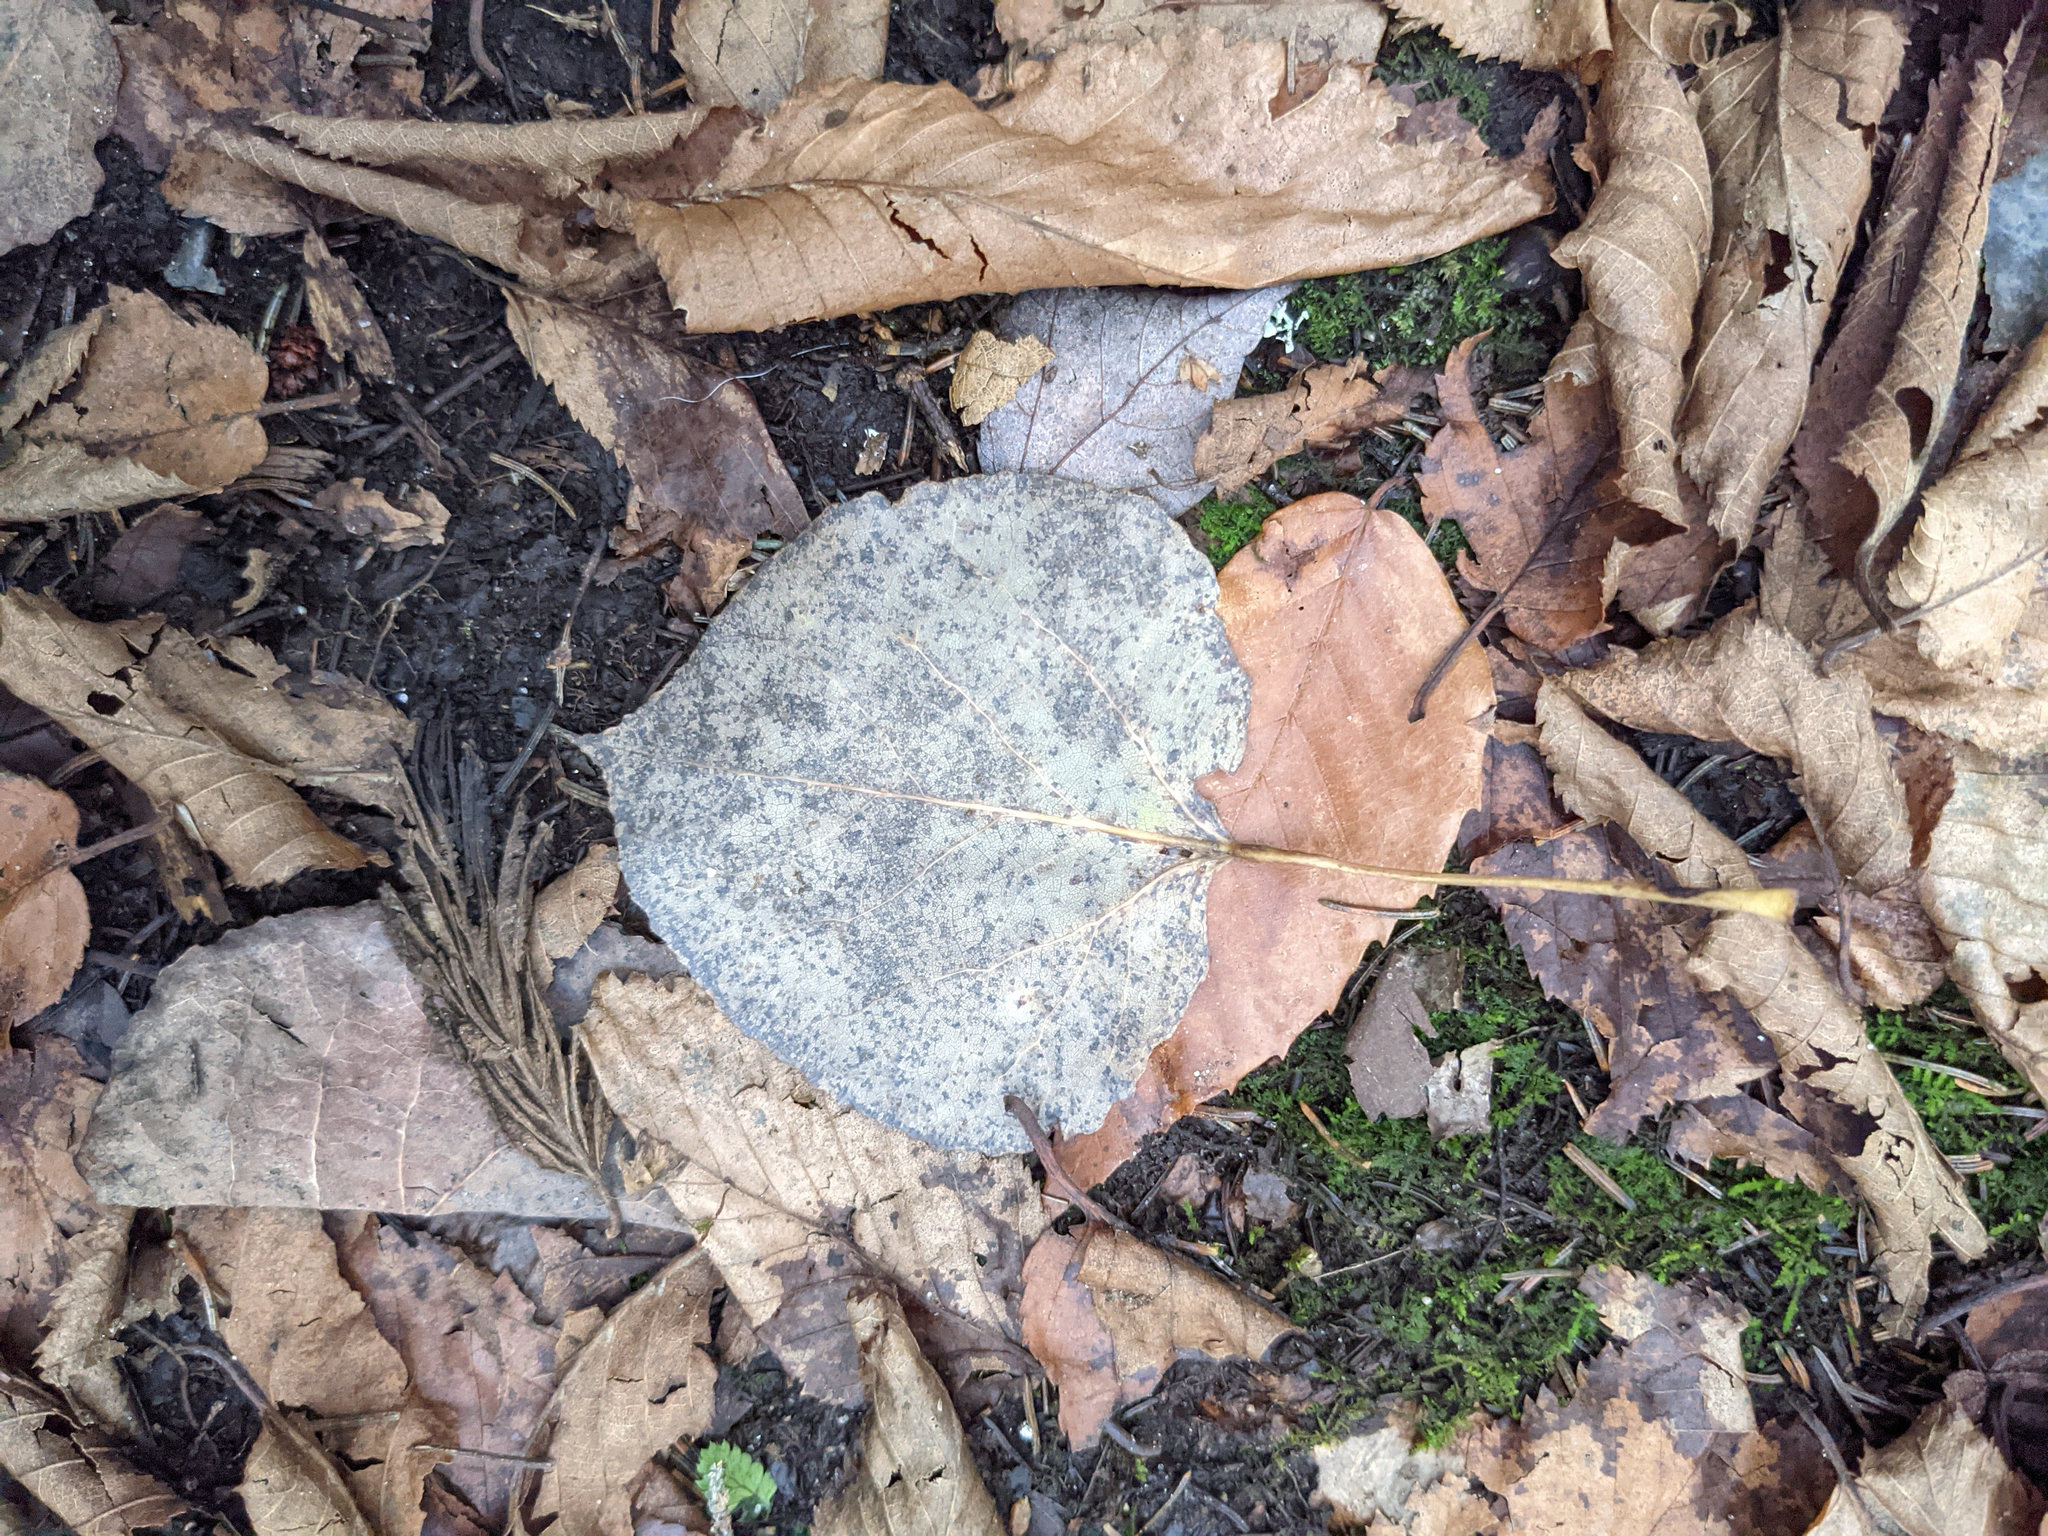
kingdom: Plantae
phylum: Tracheophyta
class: Magnoliopsida
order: Malpighiales
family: Salicaceae
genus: Populus
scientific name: Populus tremuloides
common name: Quaking aspen
